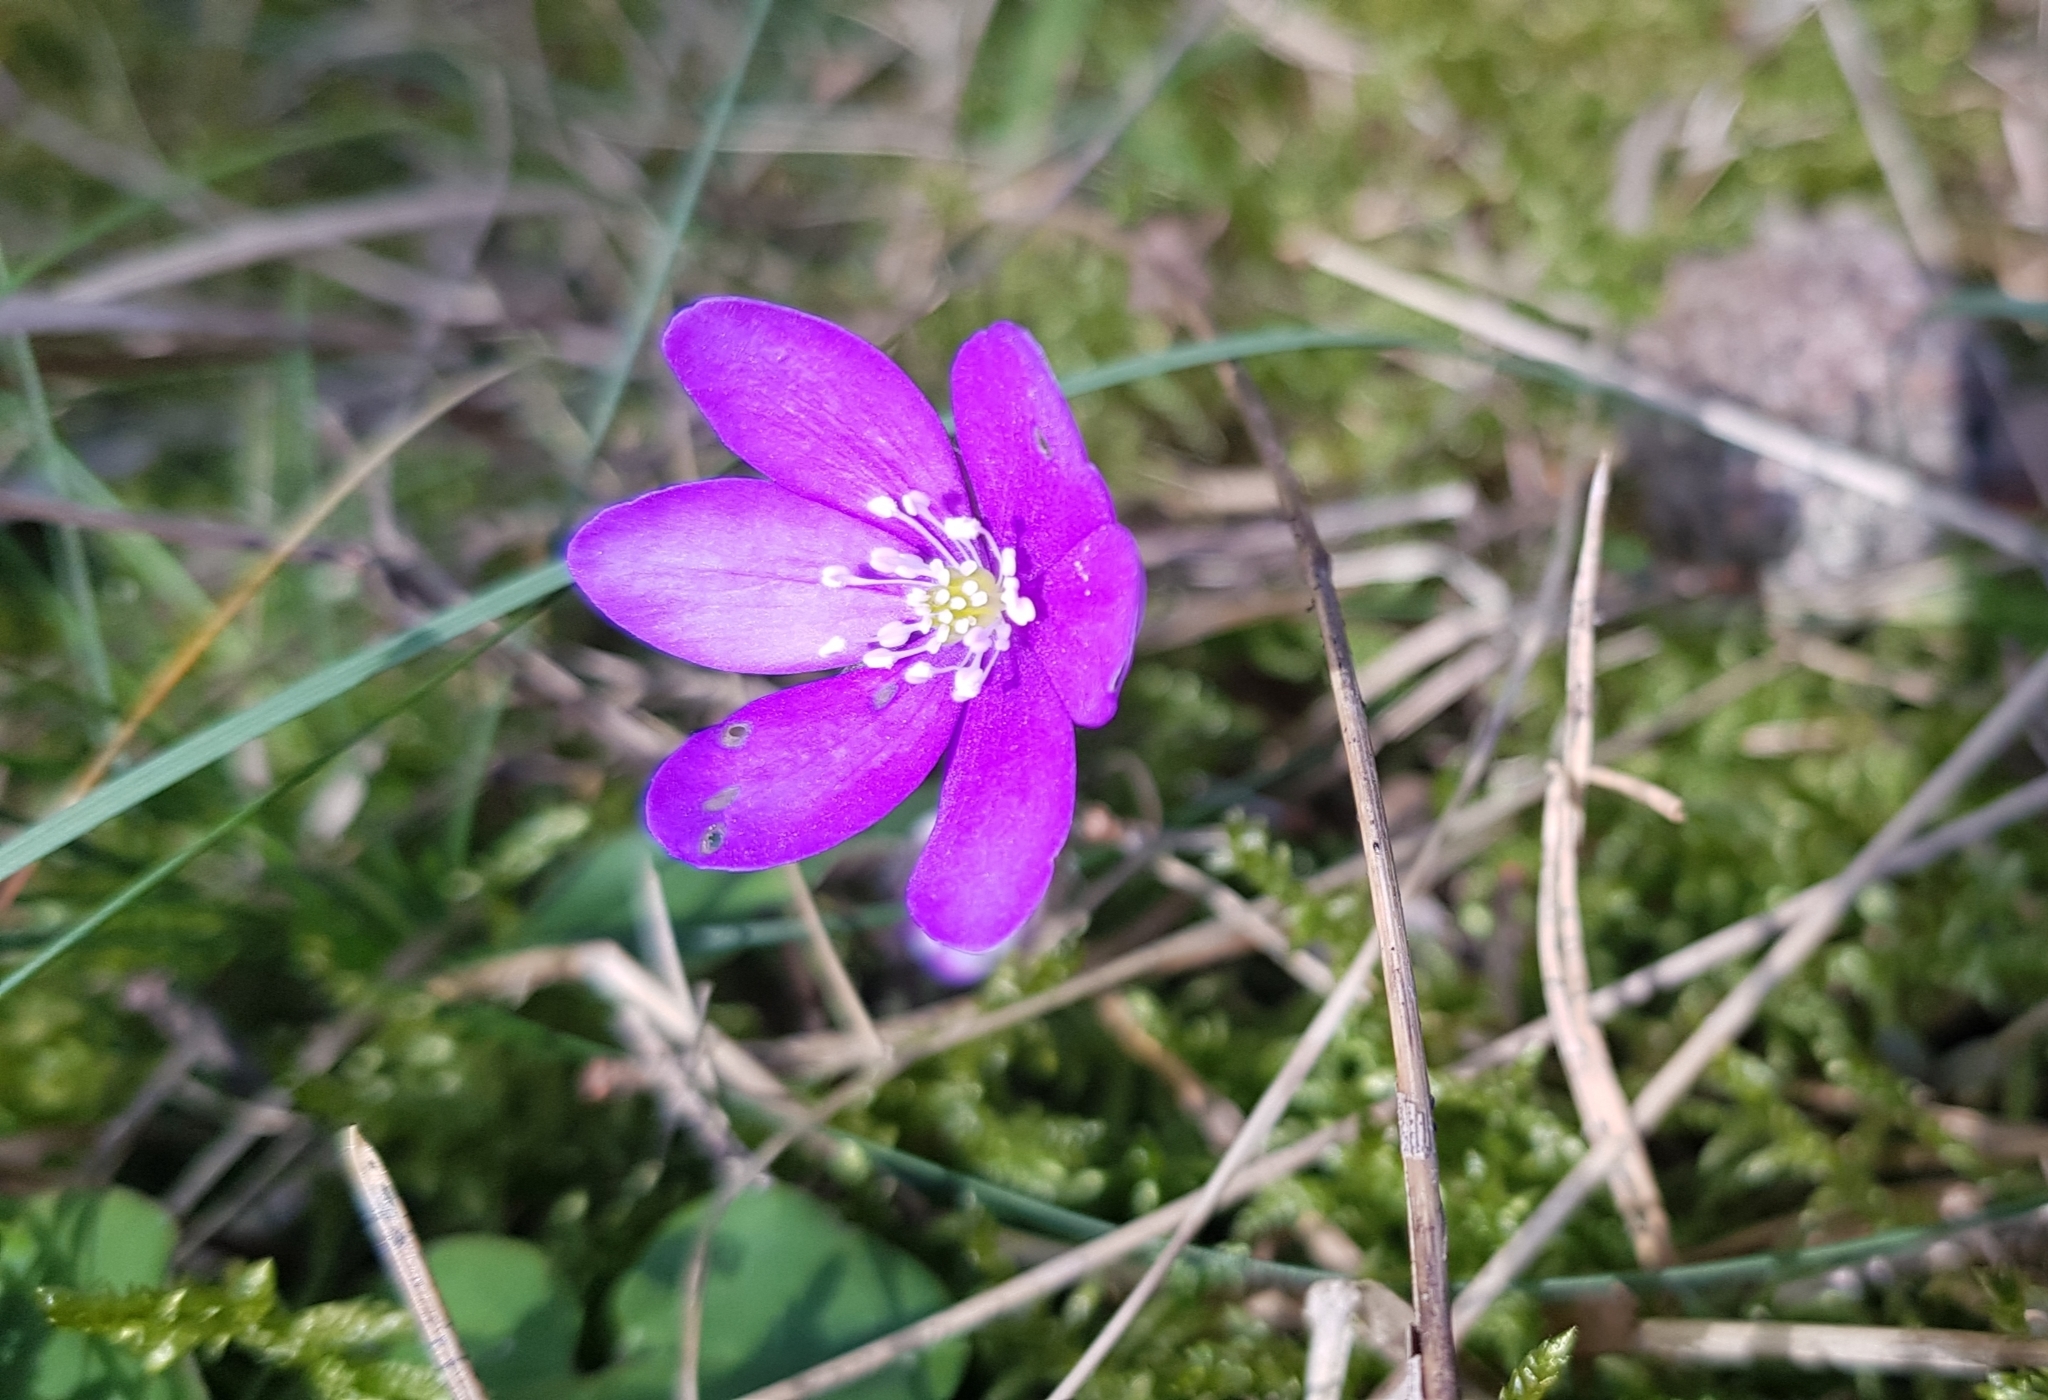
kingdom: Plantae
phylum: Tracheophyta
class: Magnoliopsida
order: Ranunculales
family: Ranunculaceae
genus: Hepatica
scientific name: Hepatica nobilis
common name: Liverleaf
